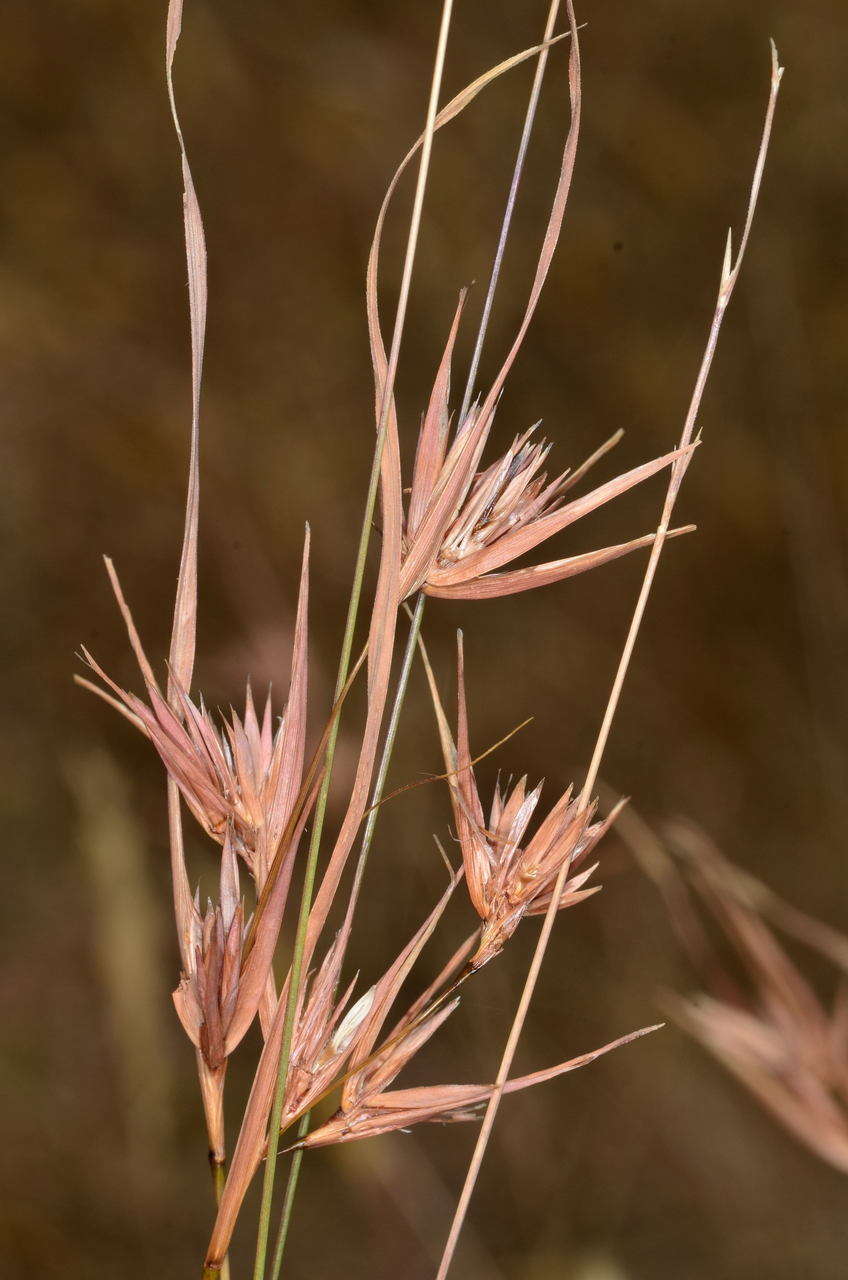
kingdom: Plantae
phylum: Tracheophyta
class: Liliopsida
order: Poales
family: Poaceae
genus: Themeda
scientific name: Themeda triandra
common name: Kangaroo grass
